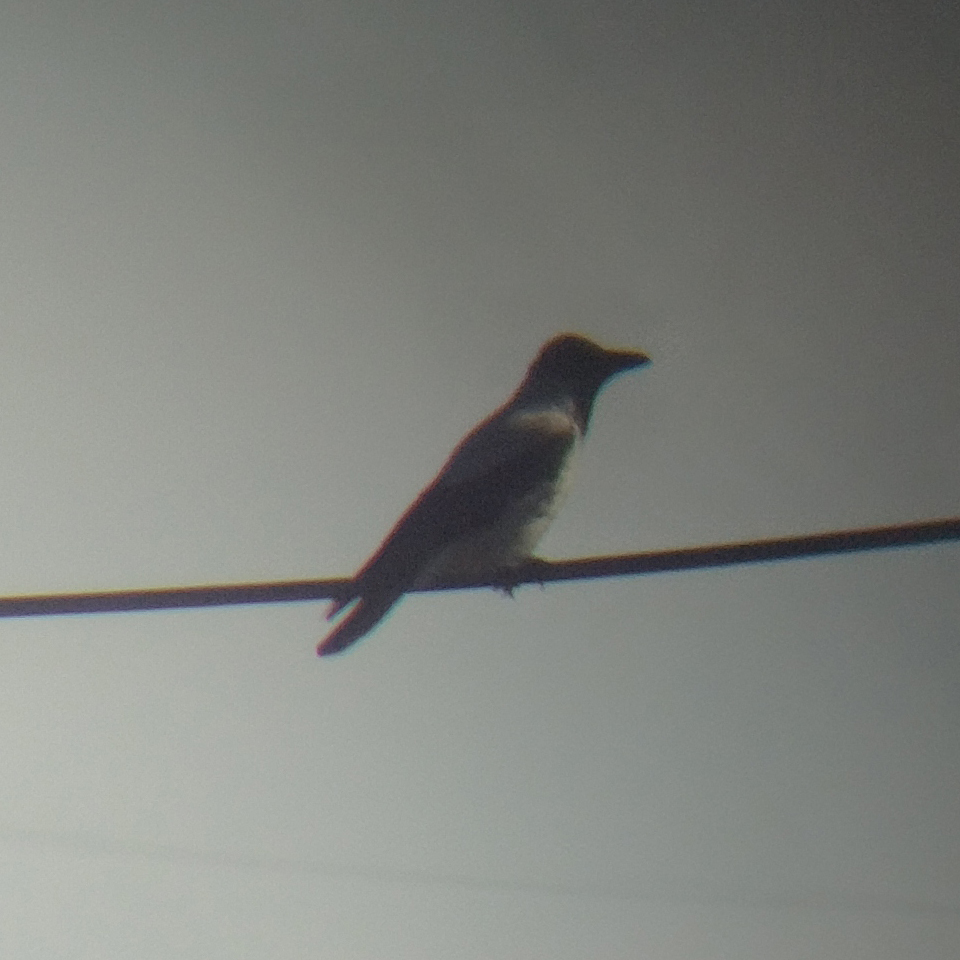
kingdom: Animalia
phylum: Chordata
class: Aves
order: Passeriformes
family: Corvidae
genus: Corvus
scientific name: Corvus cornix
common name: Hooded crow
